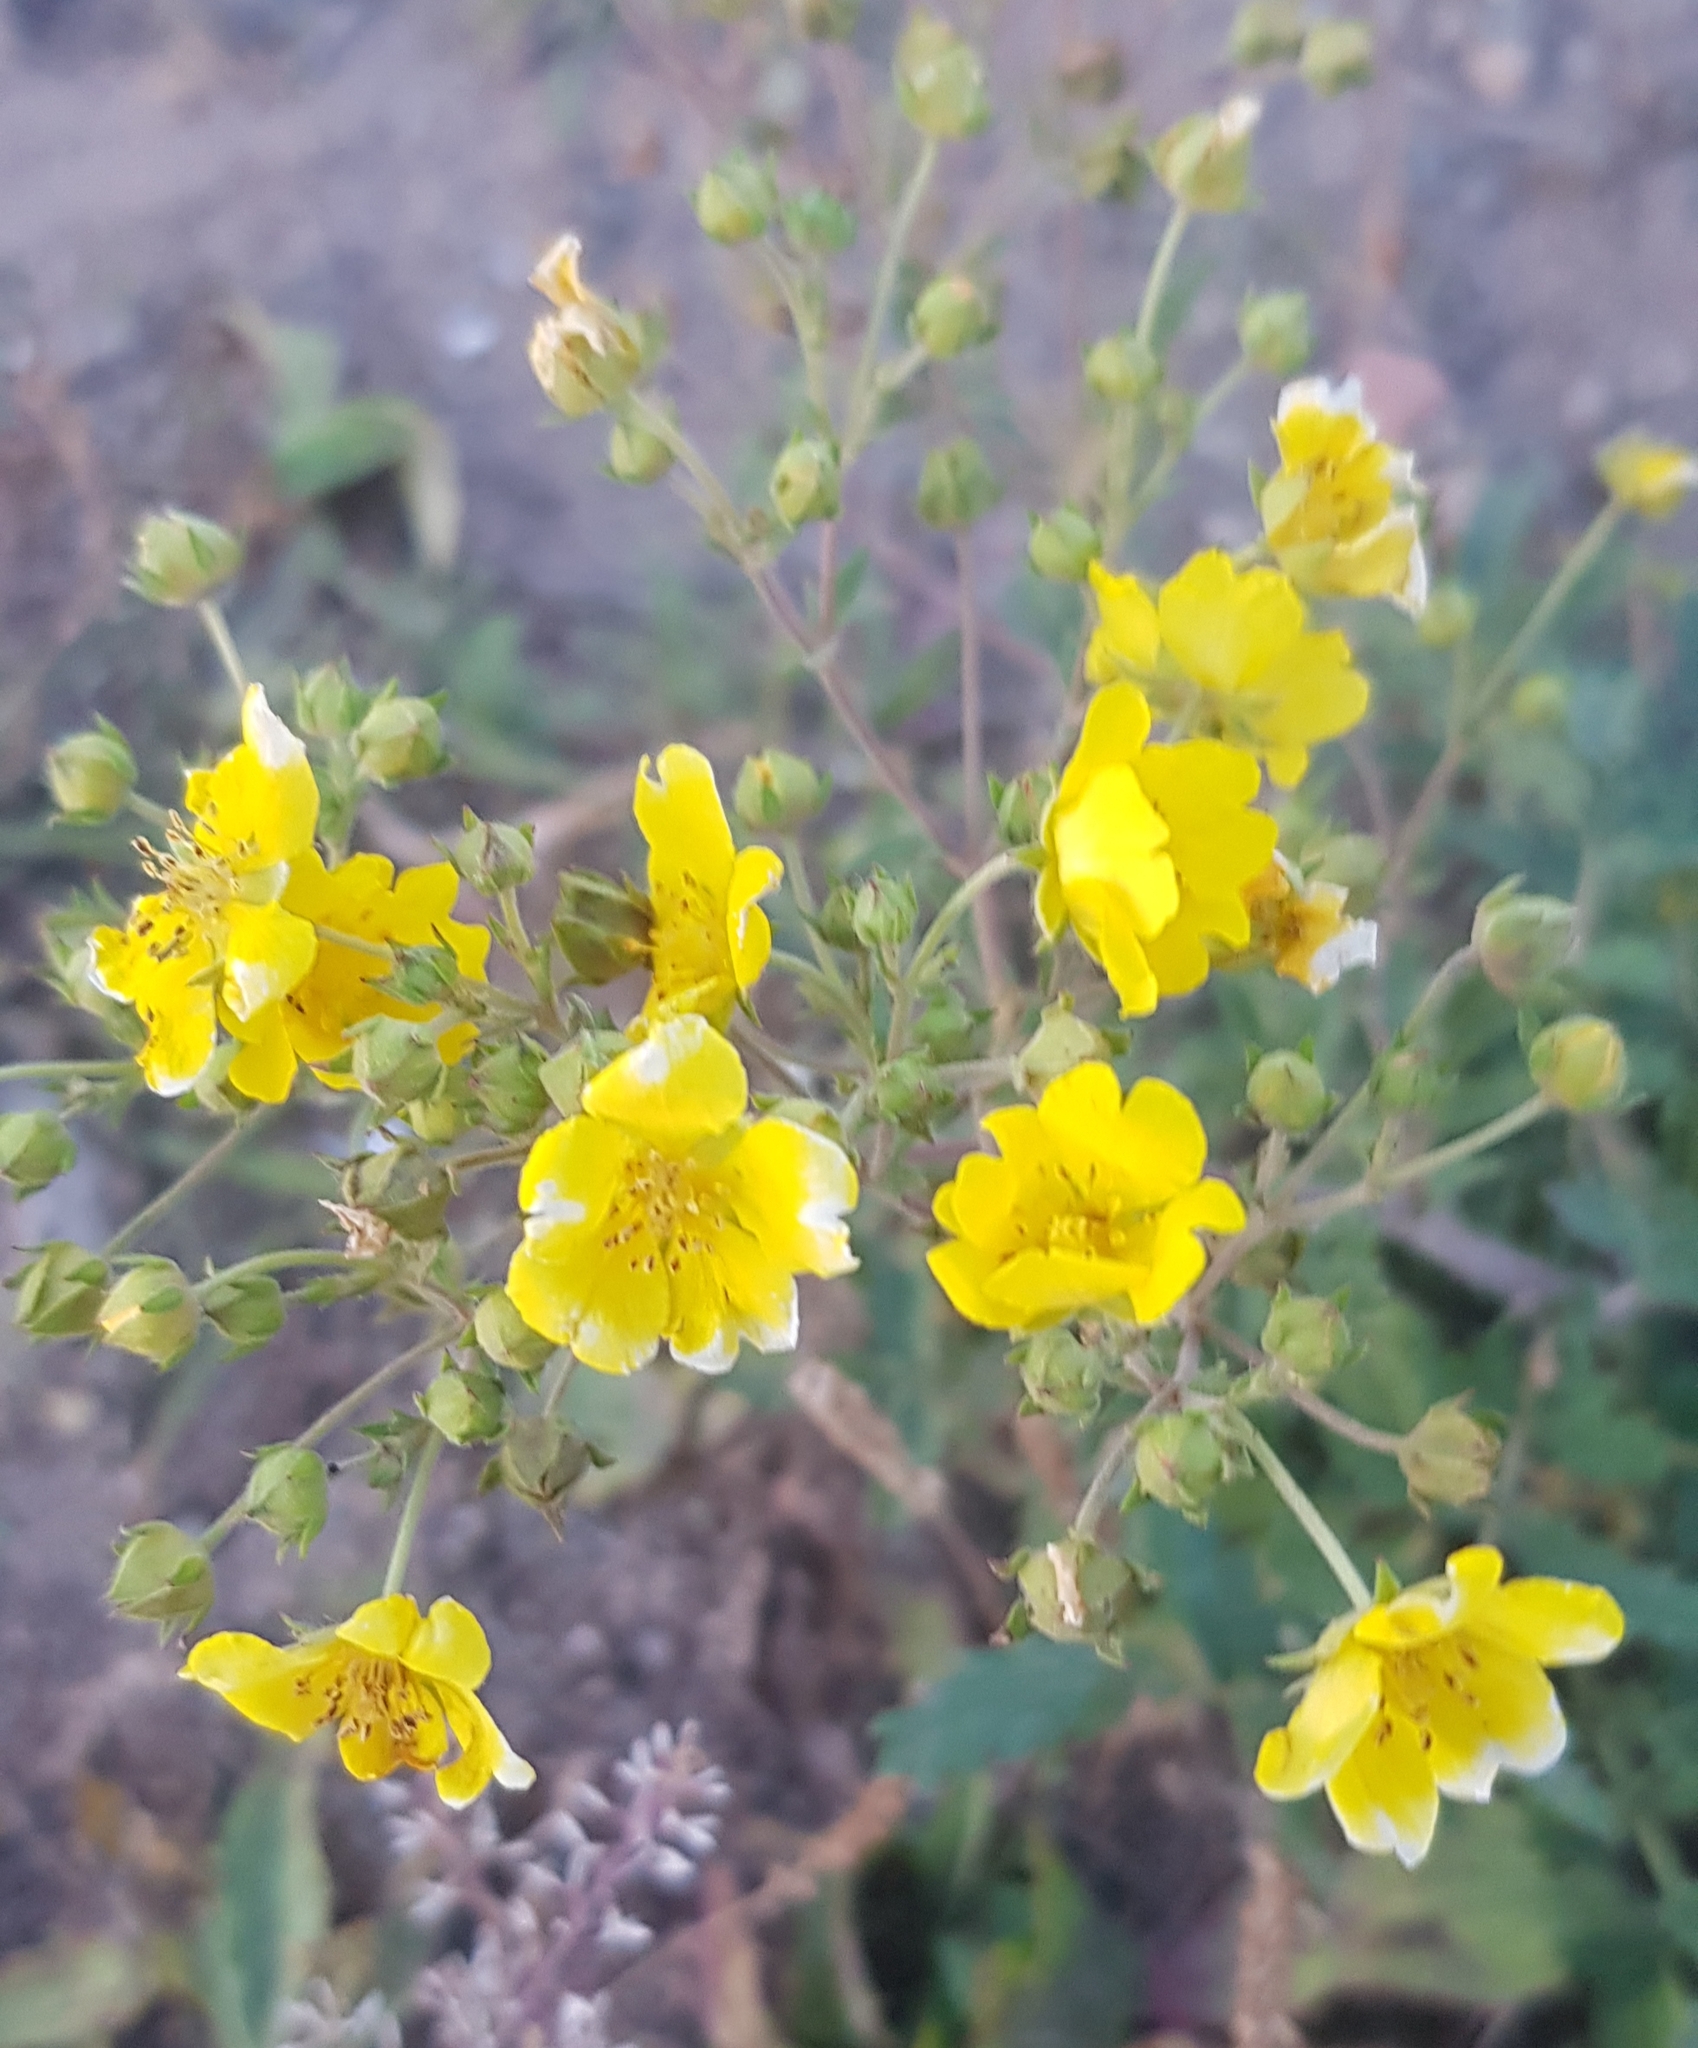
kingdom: Plantae
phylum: Tracheophyta
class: Magnoliopsida
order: Rosales
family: Rosaceae
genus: Potentilla
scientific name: Potentilla tanacetifolia
